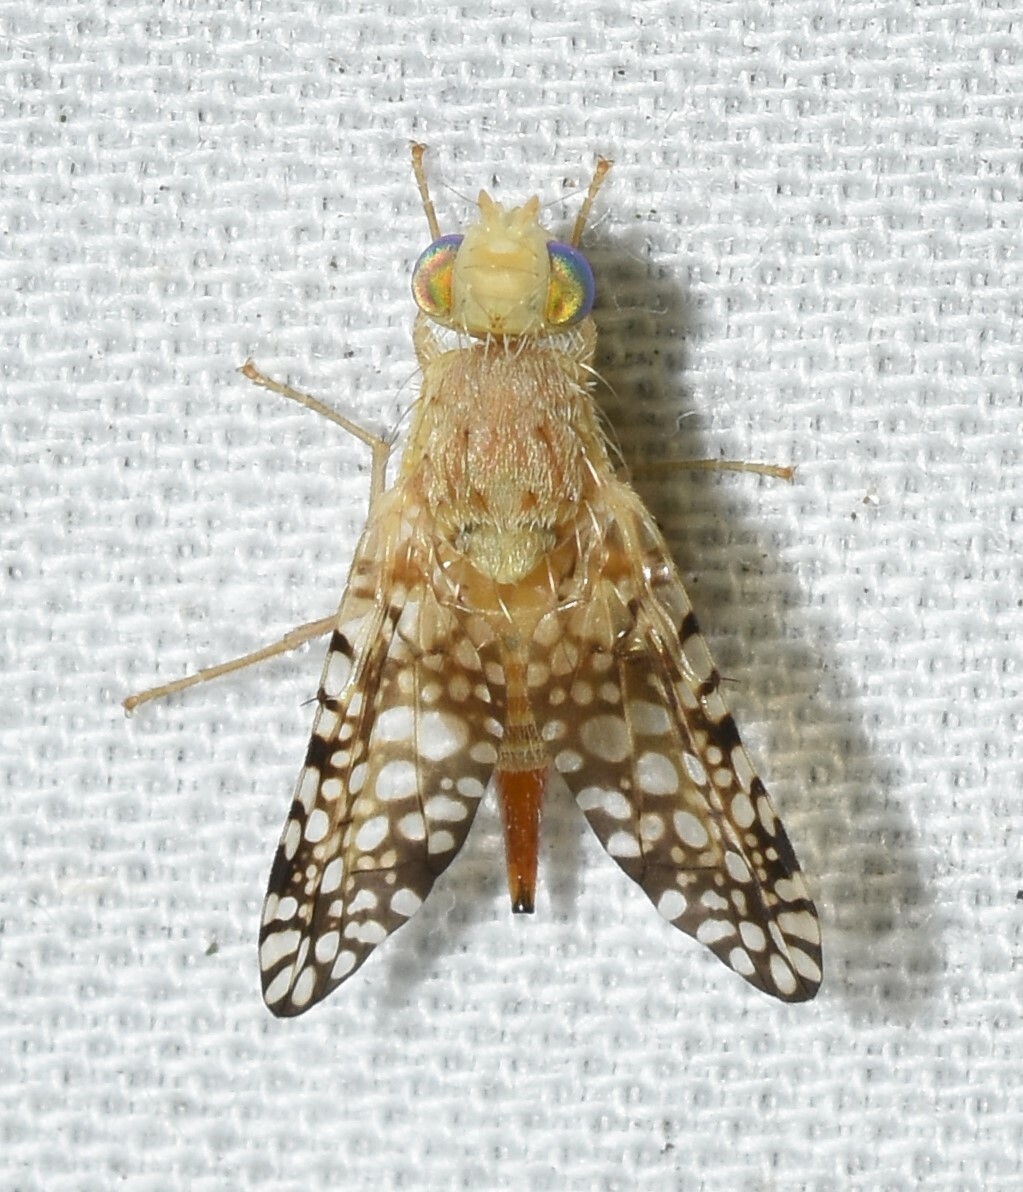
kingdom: Animalia
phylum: Arthropoda
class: Insecta
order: Diptera
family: Tephritidae
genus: Euaresta
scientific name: Euaresta aequalis
